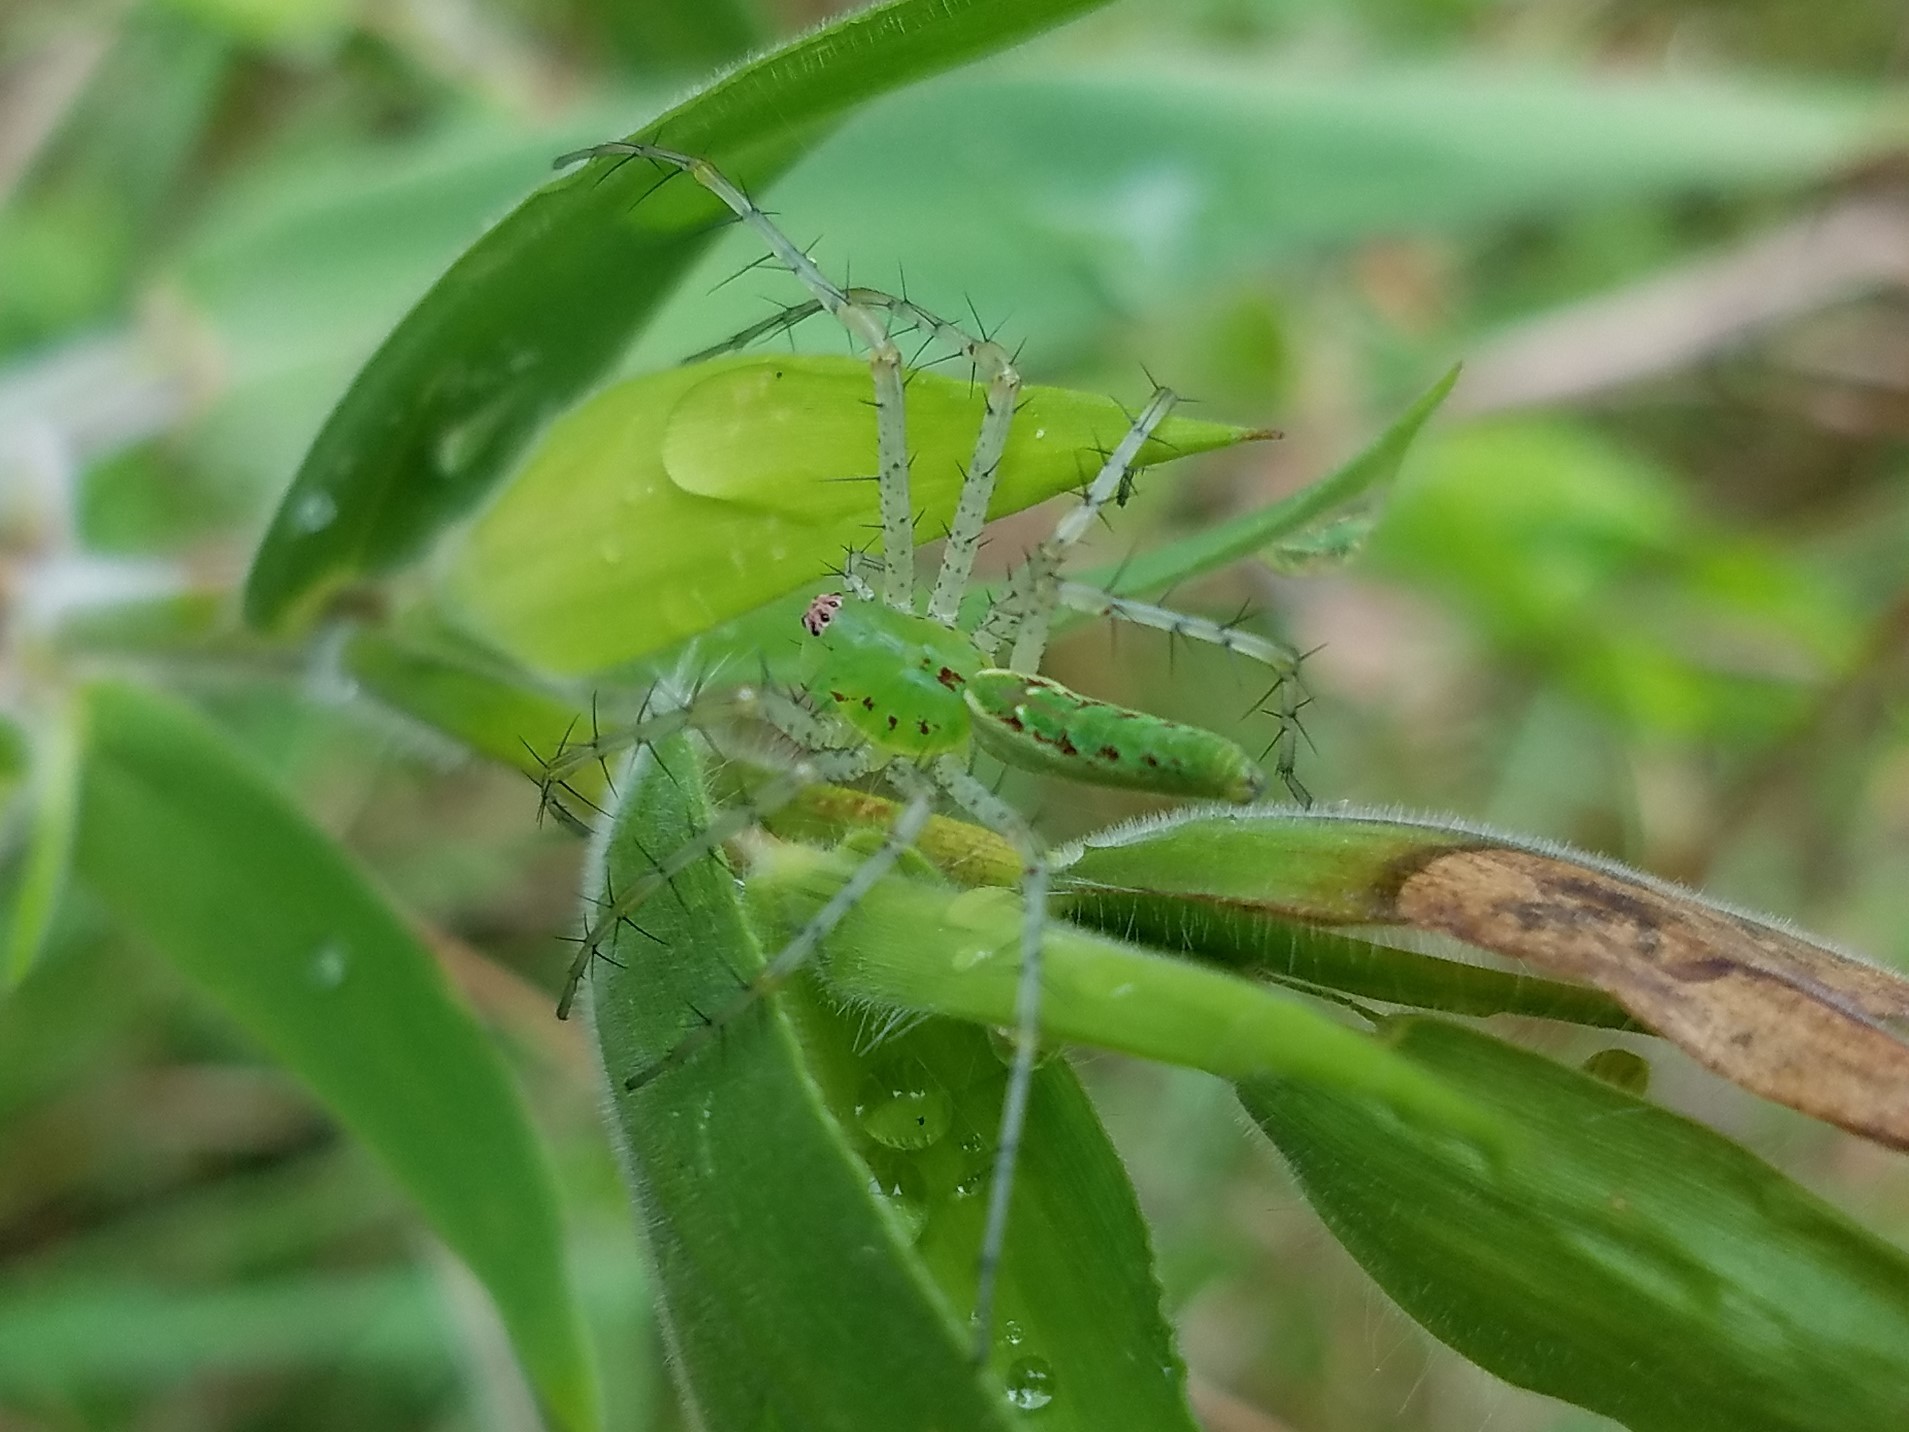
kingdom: Animalia
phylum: Arthropoda
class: Arachnida
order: Araneae
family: Oxyopidae
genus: Peucetia
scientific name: Peucetia viridans
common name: Lynx spiders
